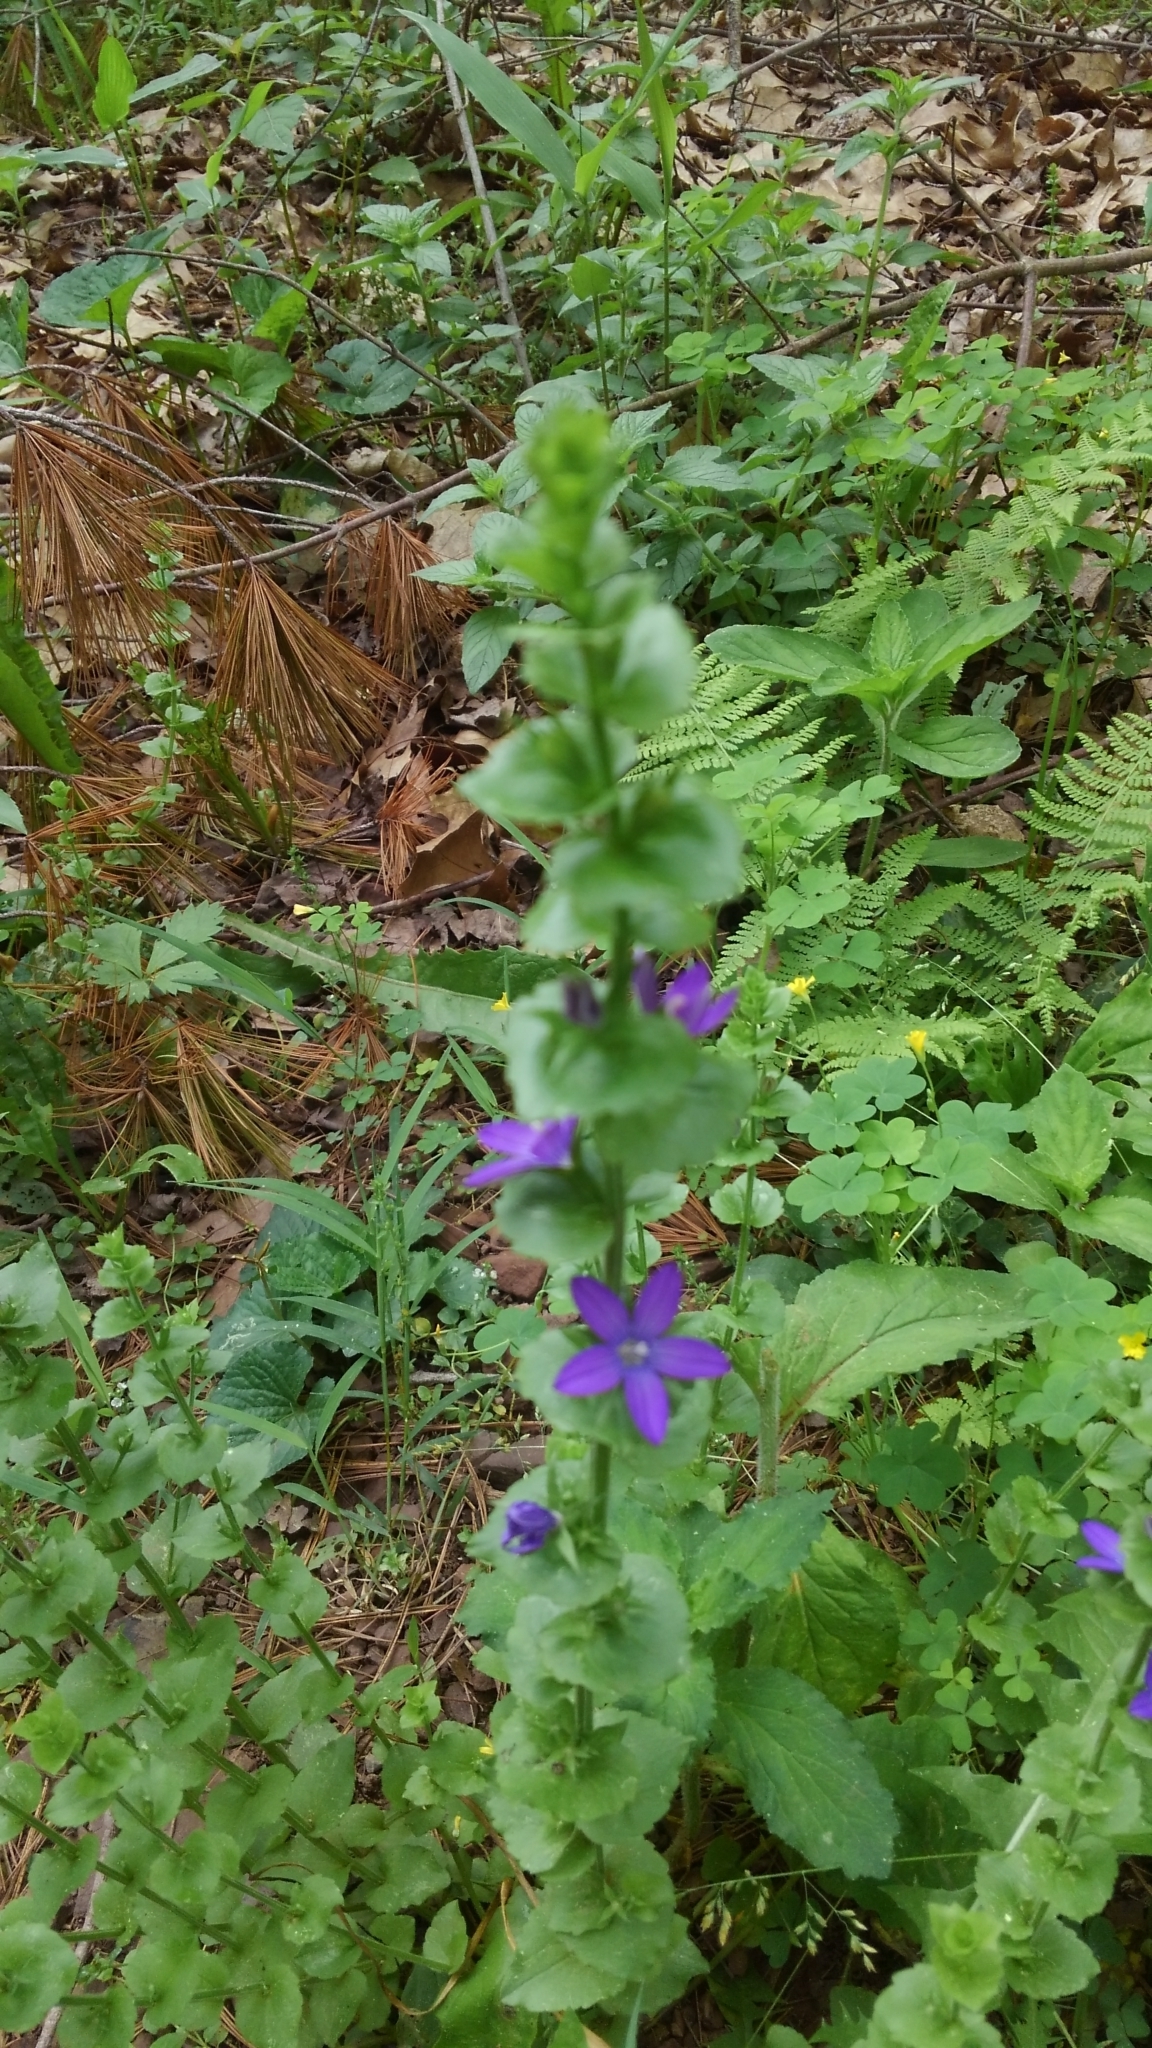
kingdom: Plantae
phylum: Tracheophyta
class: Magnoliopsida
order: Asterales
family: Campanulaceae
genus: Triodanis
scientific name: Triodanis perfoliata
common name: Clasping venus' looking-glass
